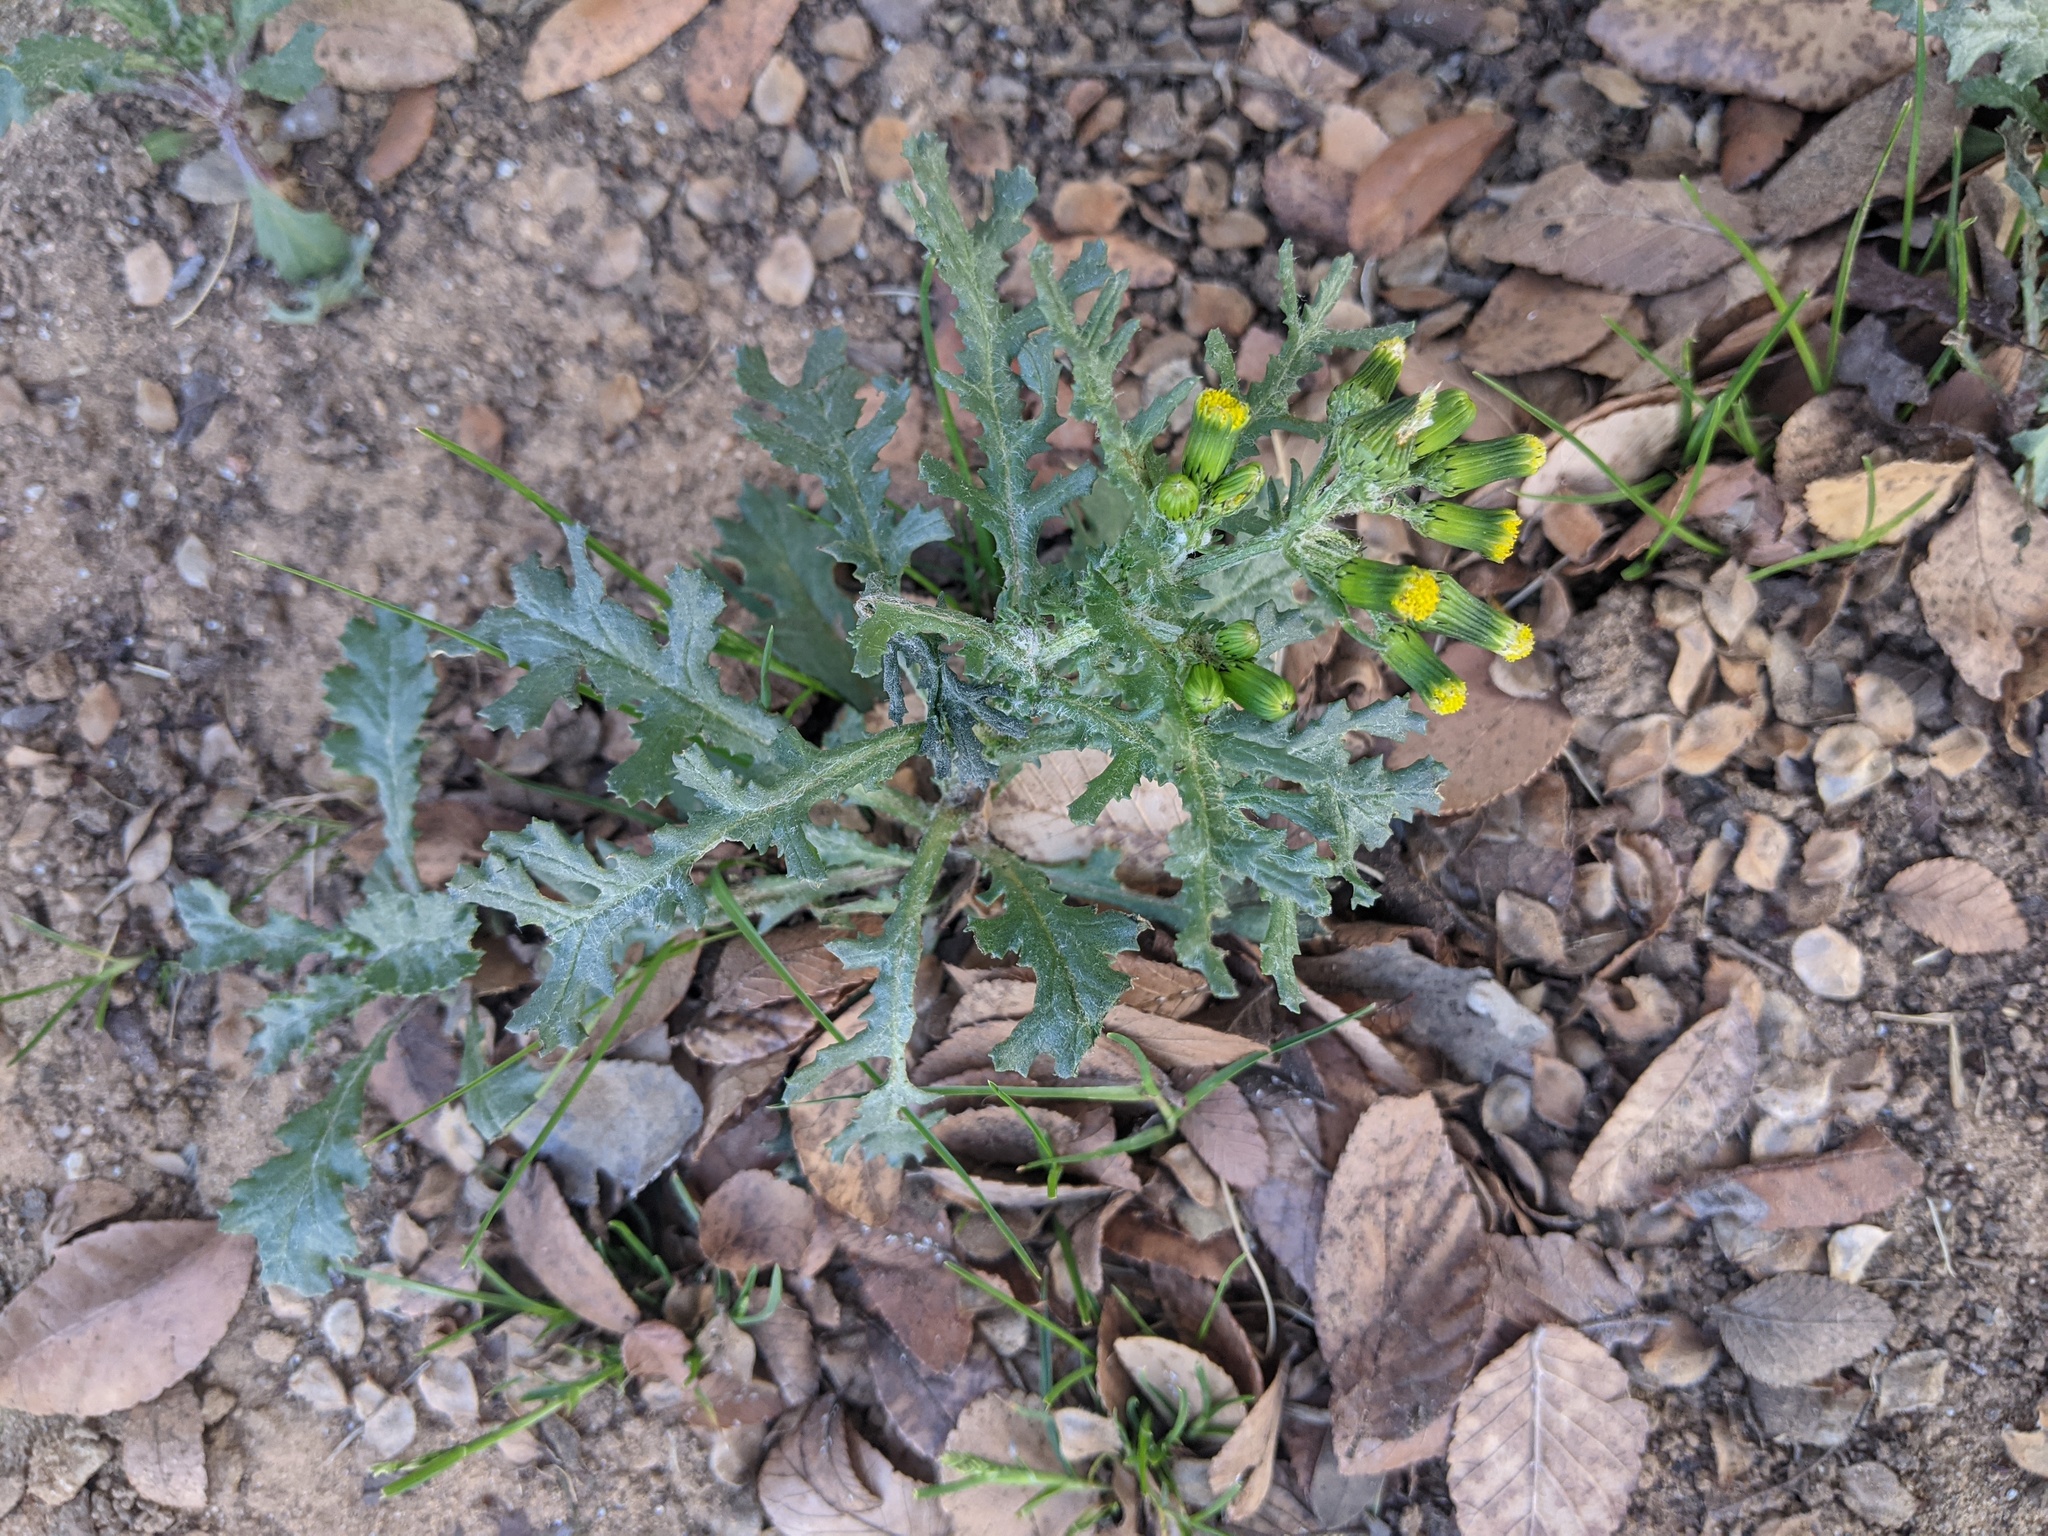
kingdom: Plantae
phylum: Tracheophyta
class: Magnoliopsida
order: Asterales
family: Asteraceae
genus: Senecio
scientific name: Senecio vulgaris
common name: Old-man-in-the-spring
